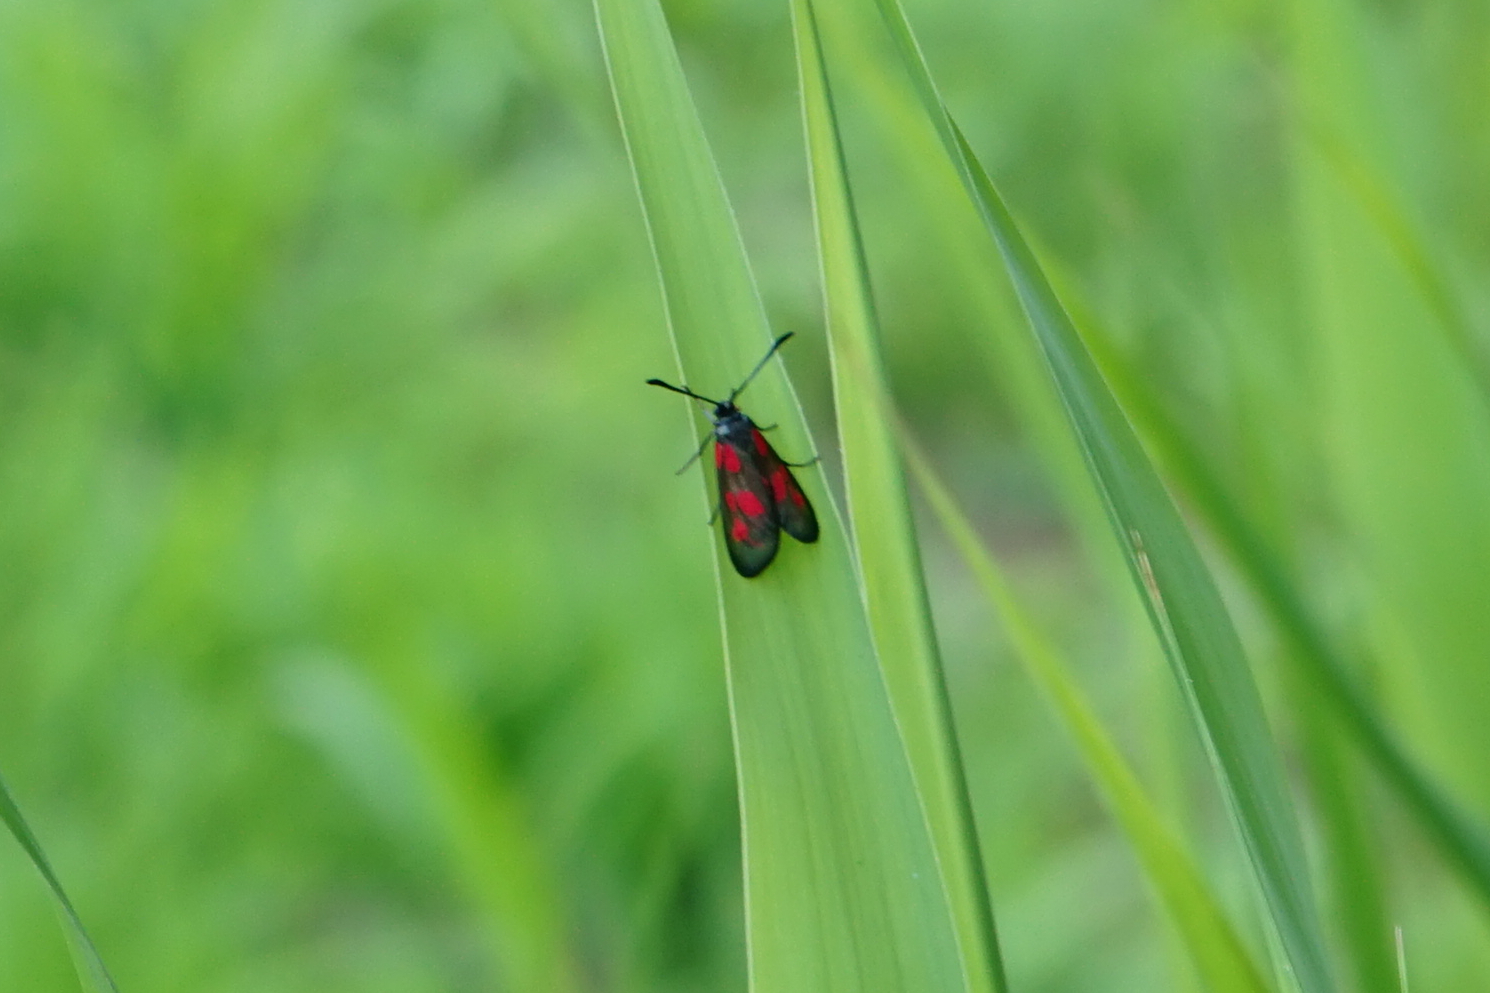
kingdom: Animalia
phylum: Arthropoda
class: Insecta
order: Lepidoptera
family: Zygaenidae
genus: Zygaena
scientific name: Zygaena niphona
